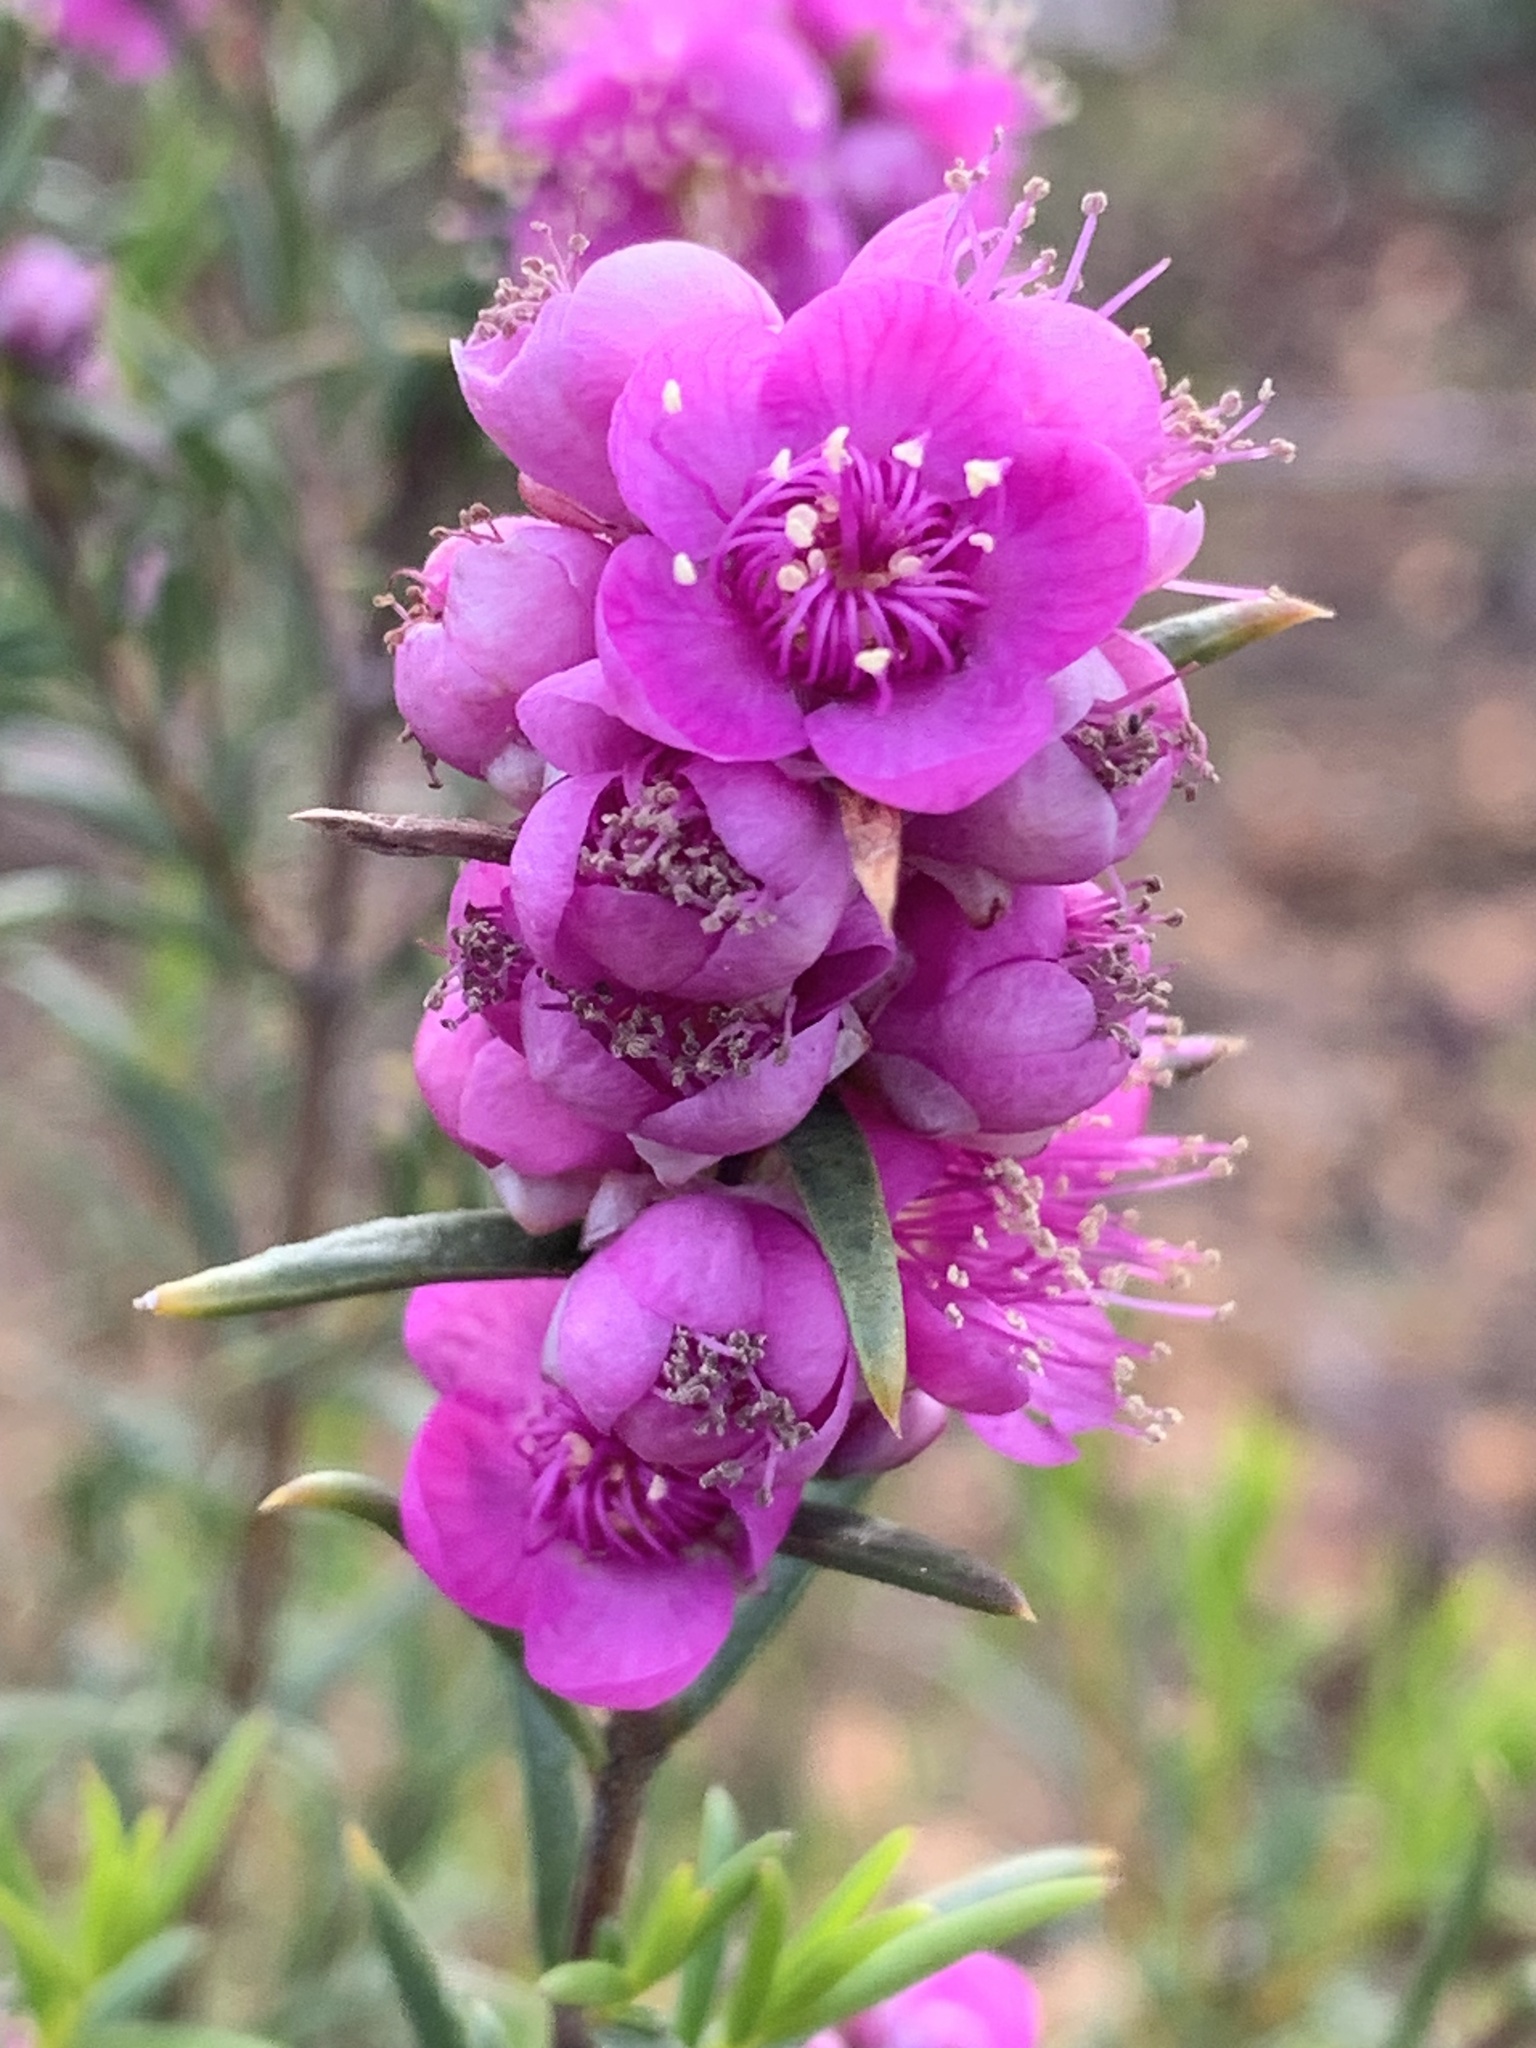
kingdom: Plantae
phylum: Tracheophyta
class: Magnoliopsida
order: Myrtales
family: Myrtaceae
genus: Hypocalymma
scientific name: Hypocalymma robustum
